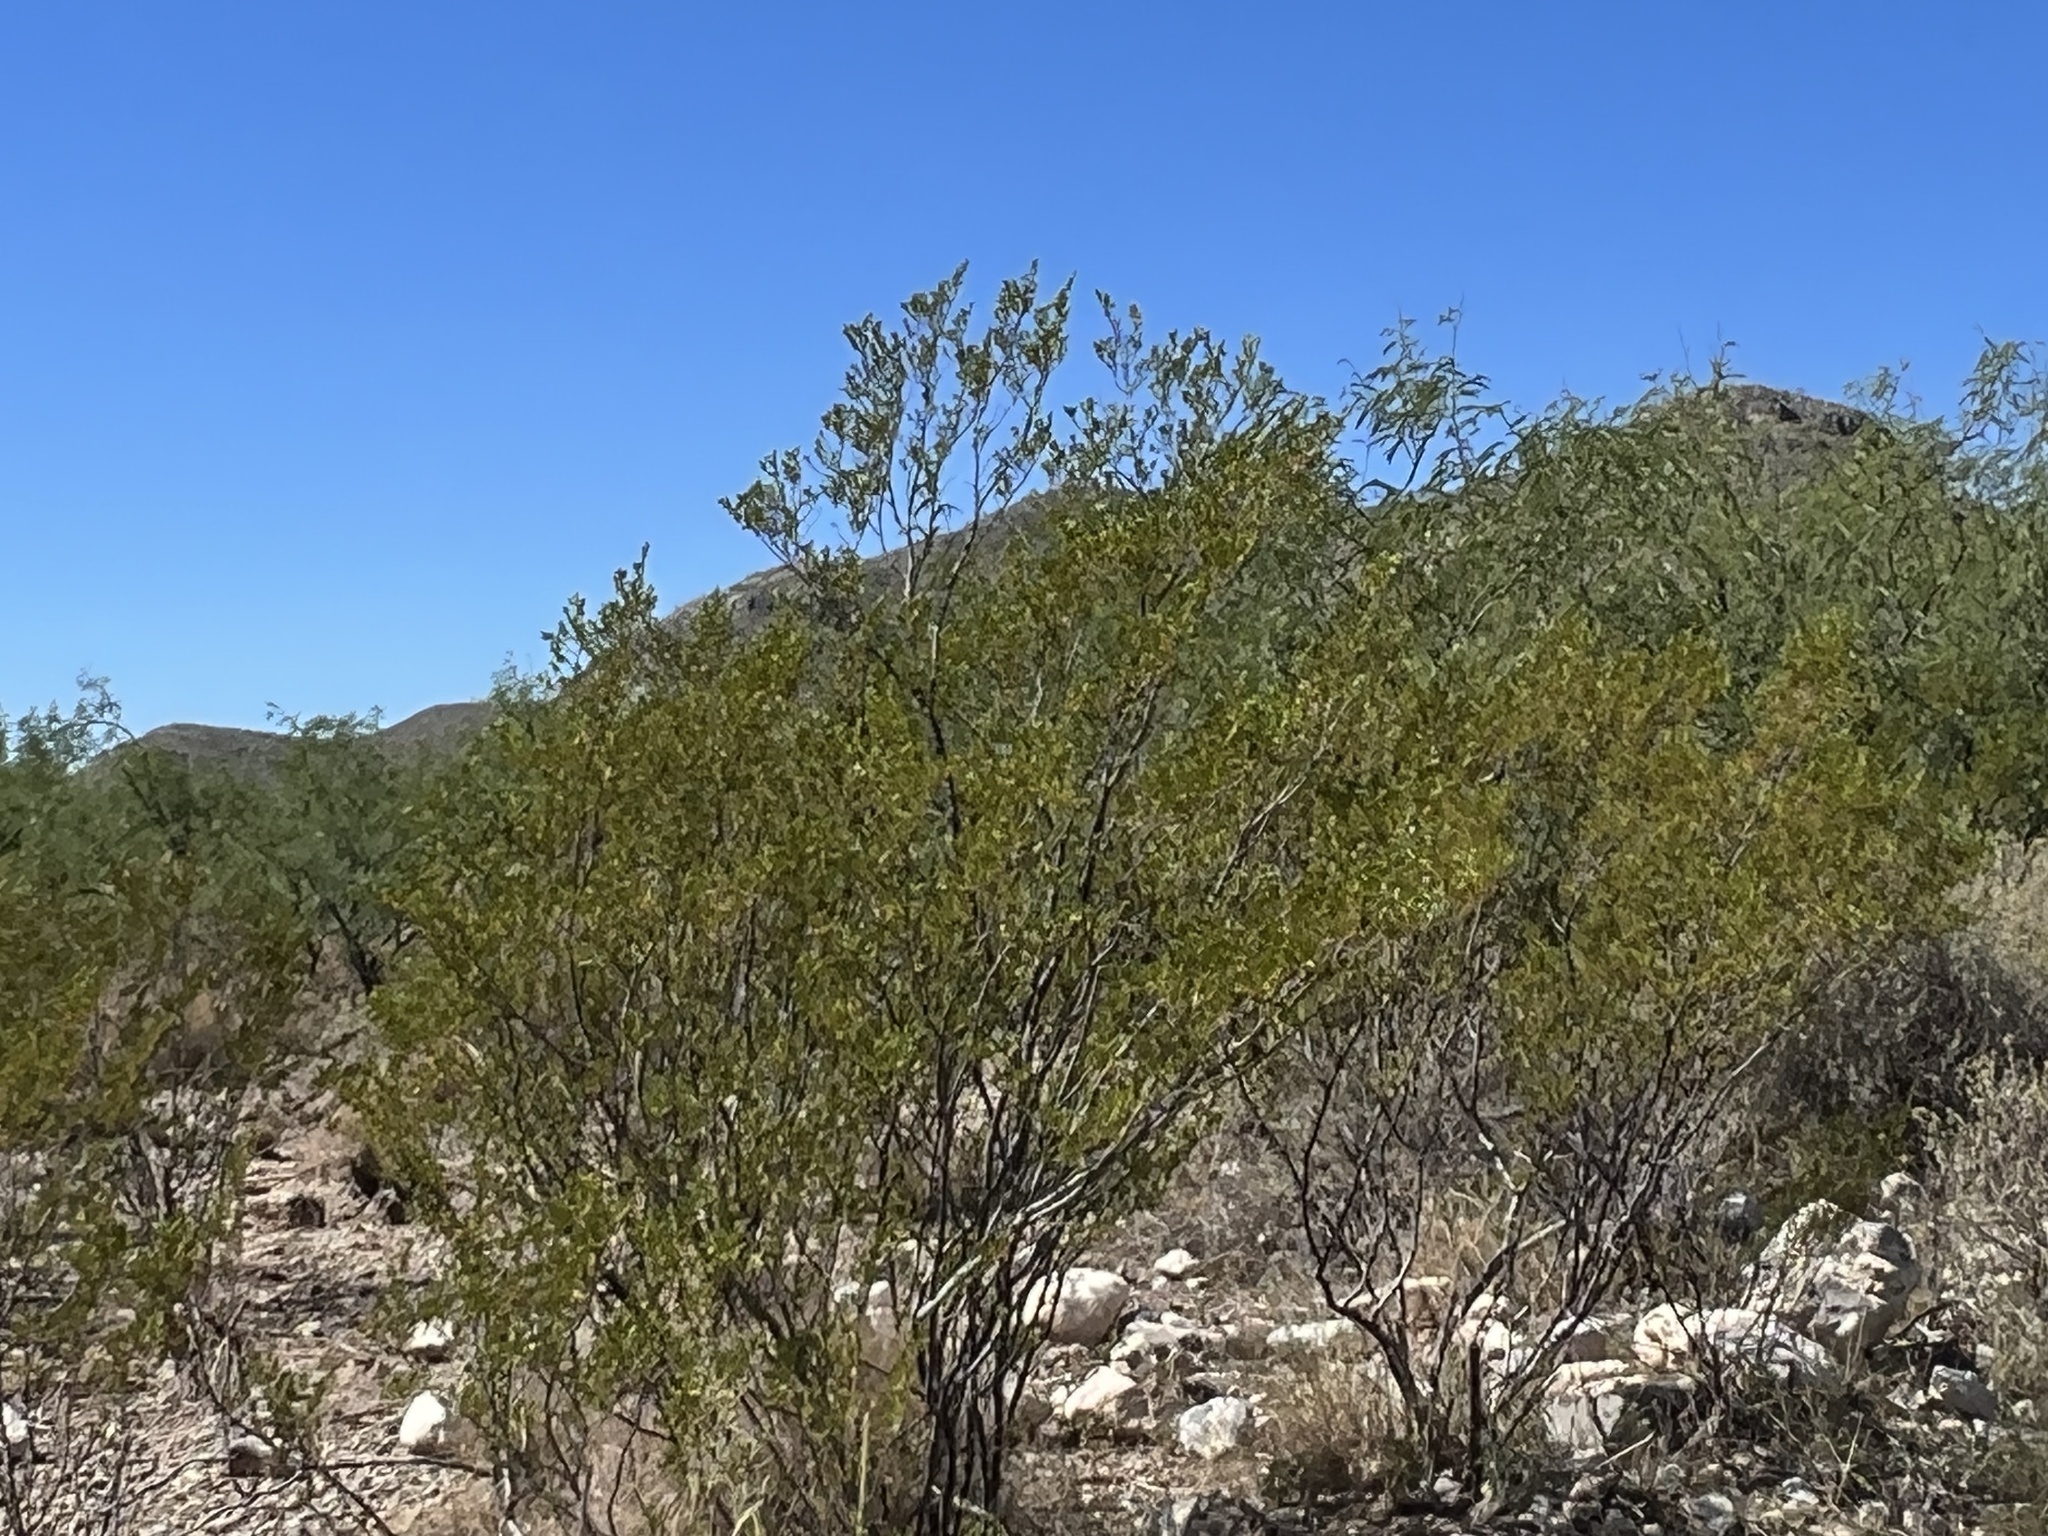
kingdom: Plantae
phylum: Tracheophyta
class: Magnoliopsida
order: Zygophyllales
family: Zygophyllaceae
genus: Larrea
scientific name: Larrea tridentata
